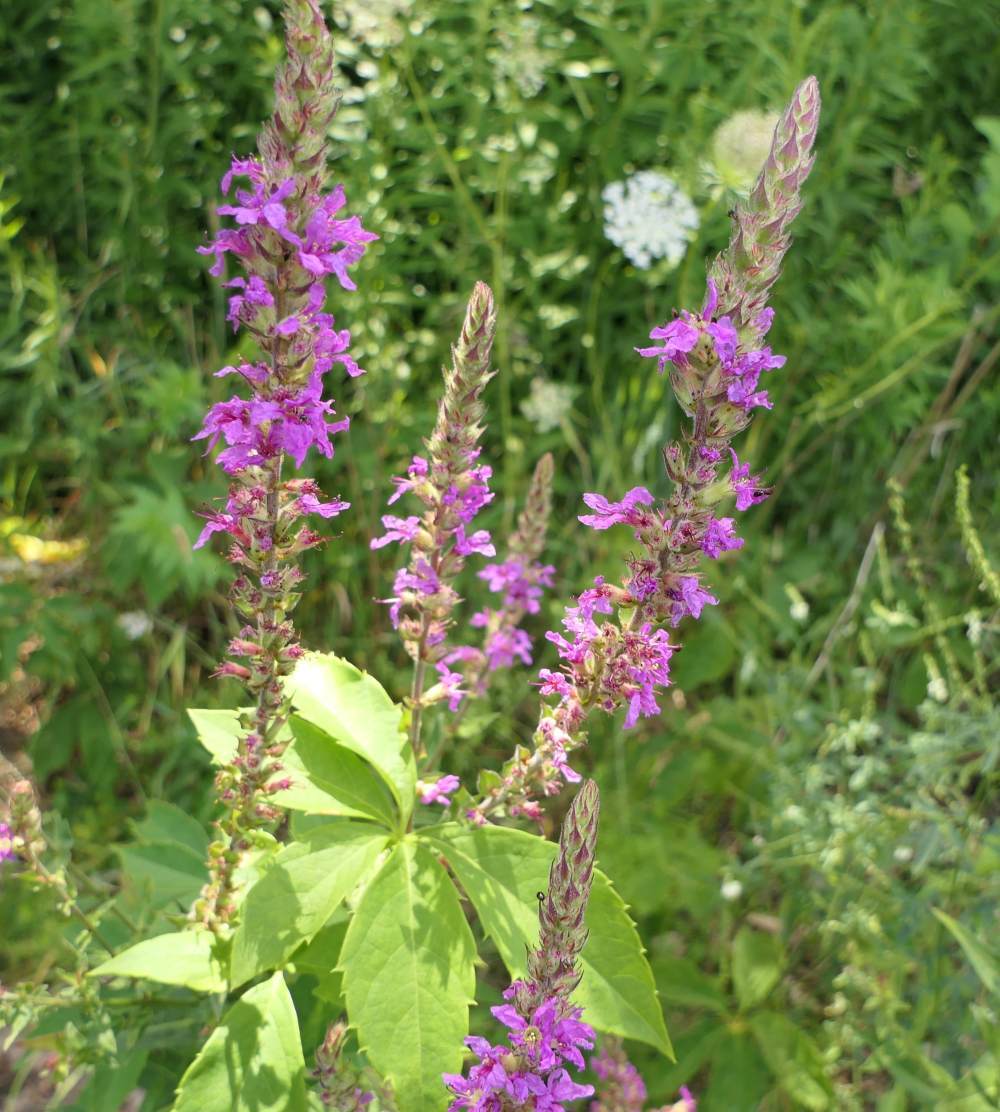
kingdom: Plantae
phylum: Tracheophyta
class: Magnoliopsida
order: Myrtales
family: Lythraceae
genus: Lythrum
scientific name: Lythrum salicaria
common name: Purple loosestrife
